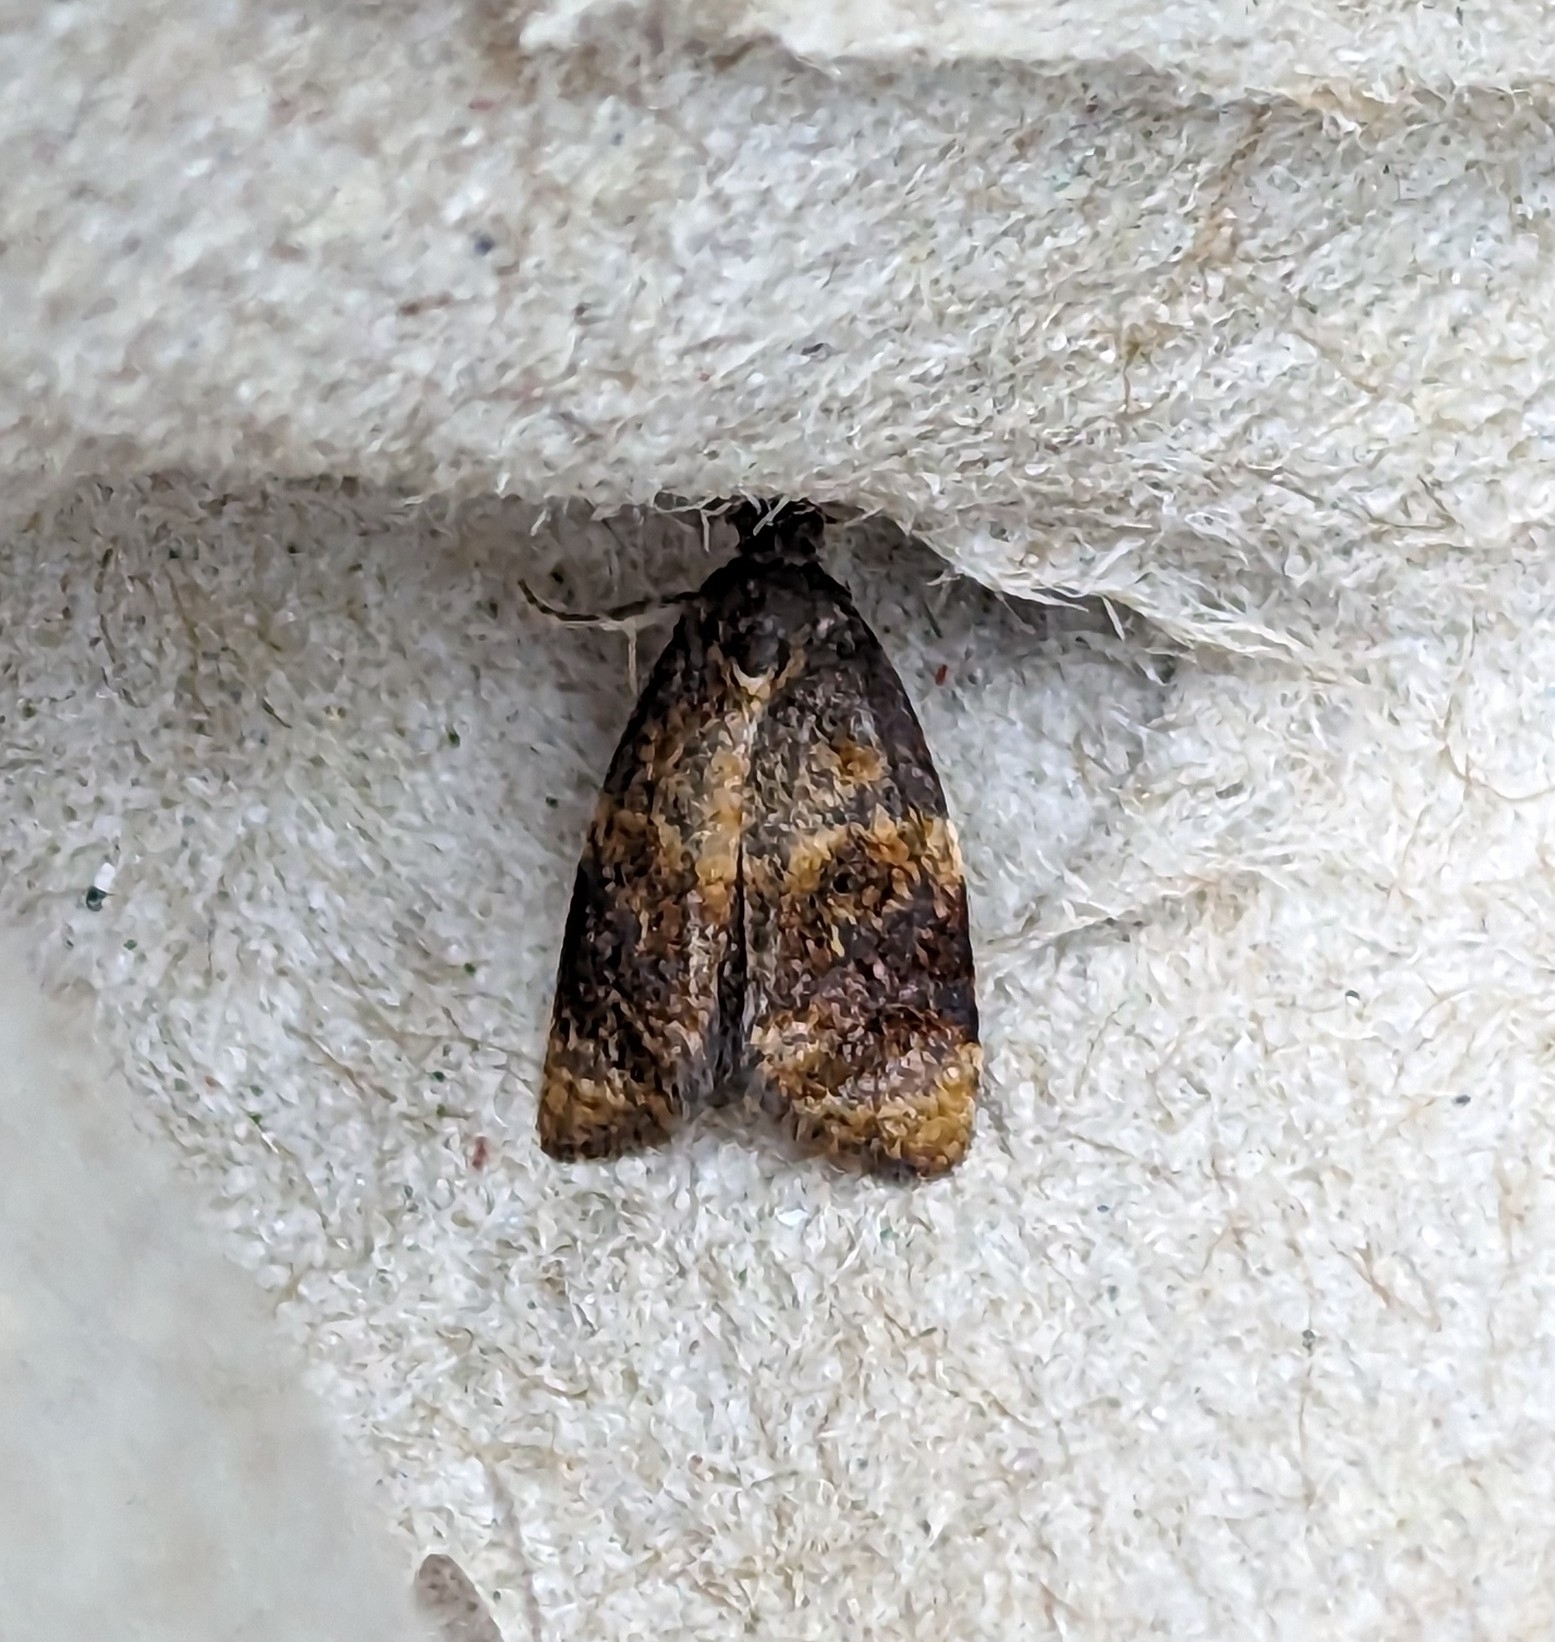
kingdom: Animalia
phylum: Arthropoda
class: Insecta
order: Lepidoptera
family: Tortricidae
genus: Ditula
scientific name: Ditula angustiorana
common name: Red-barred tortrix
